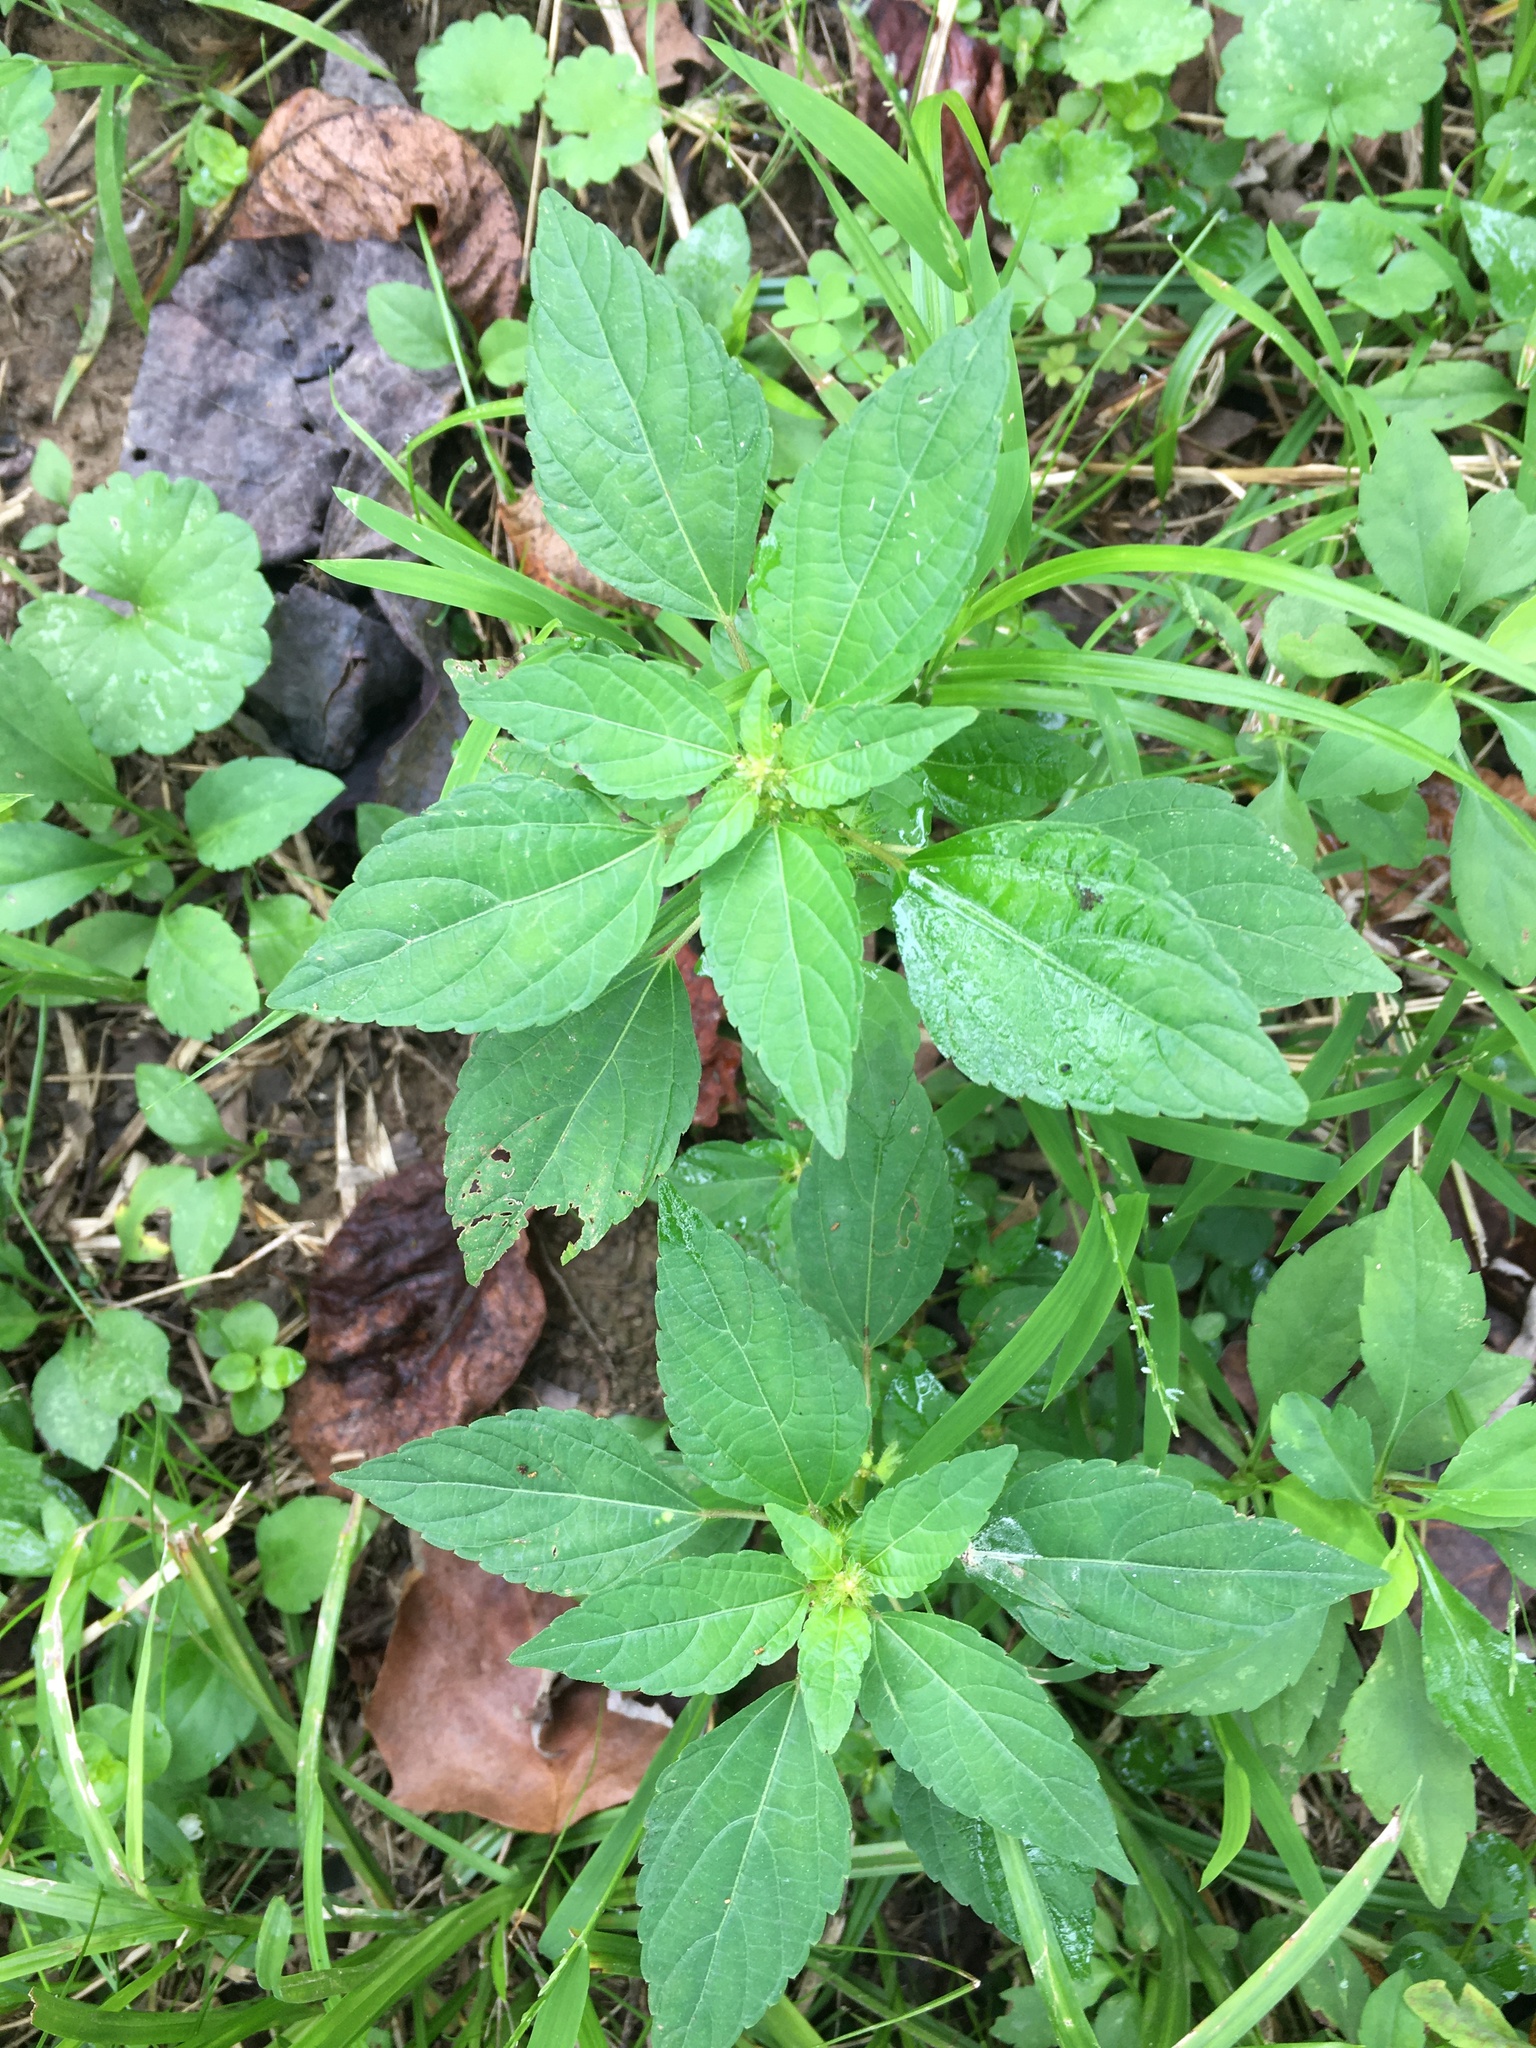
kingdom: Plantae
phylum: Tracheophyta
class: Magnoliopsida
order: Malpighiales
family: Euphorbiaceae
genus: Acalypha
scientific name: Acalypha rhomboidea
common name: Rhombic copperleaf
